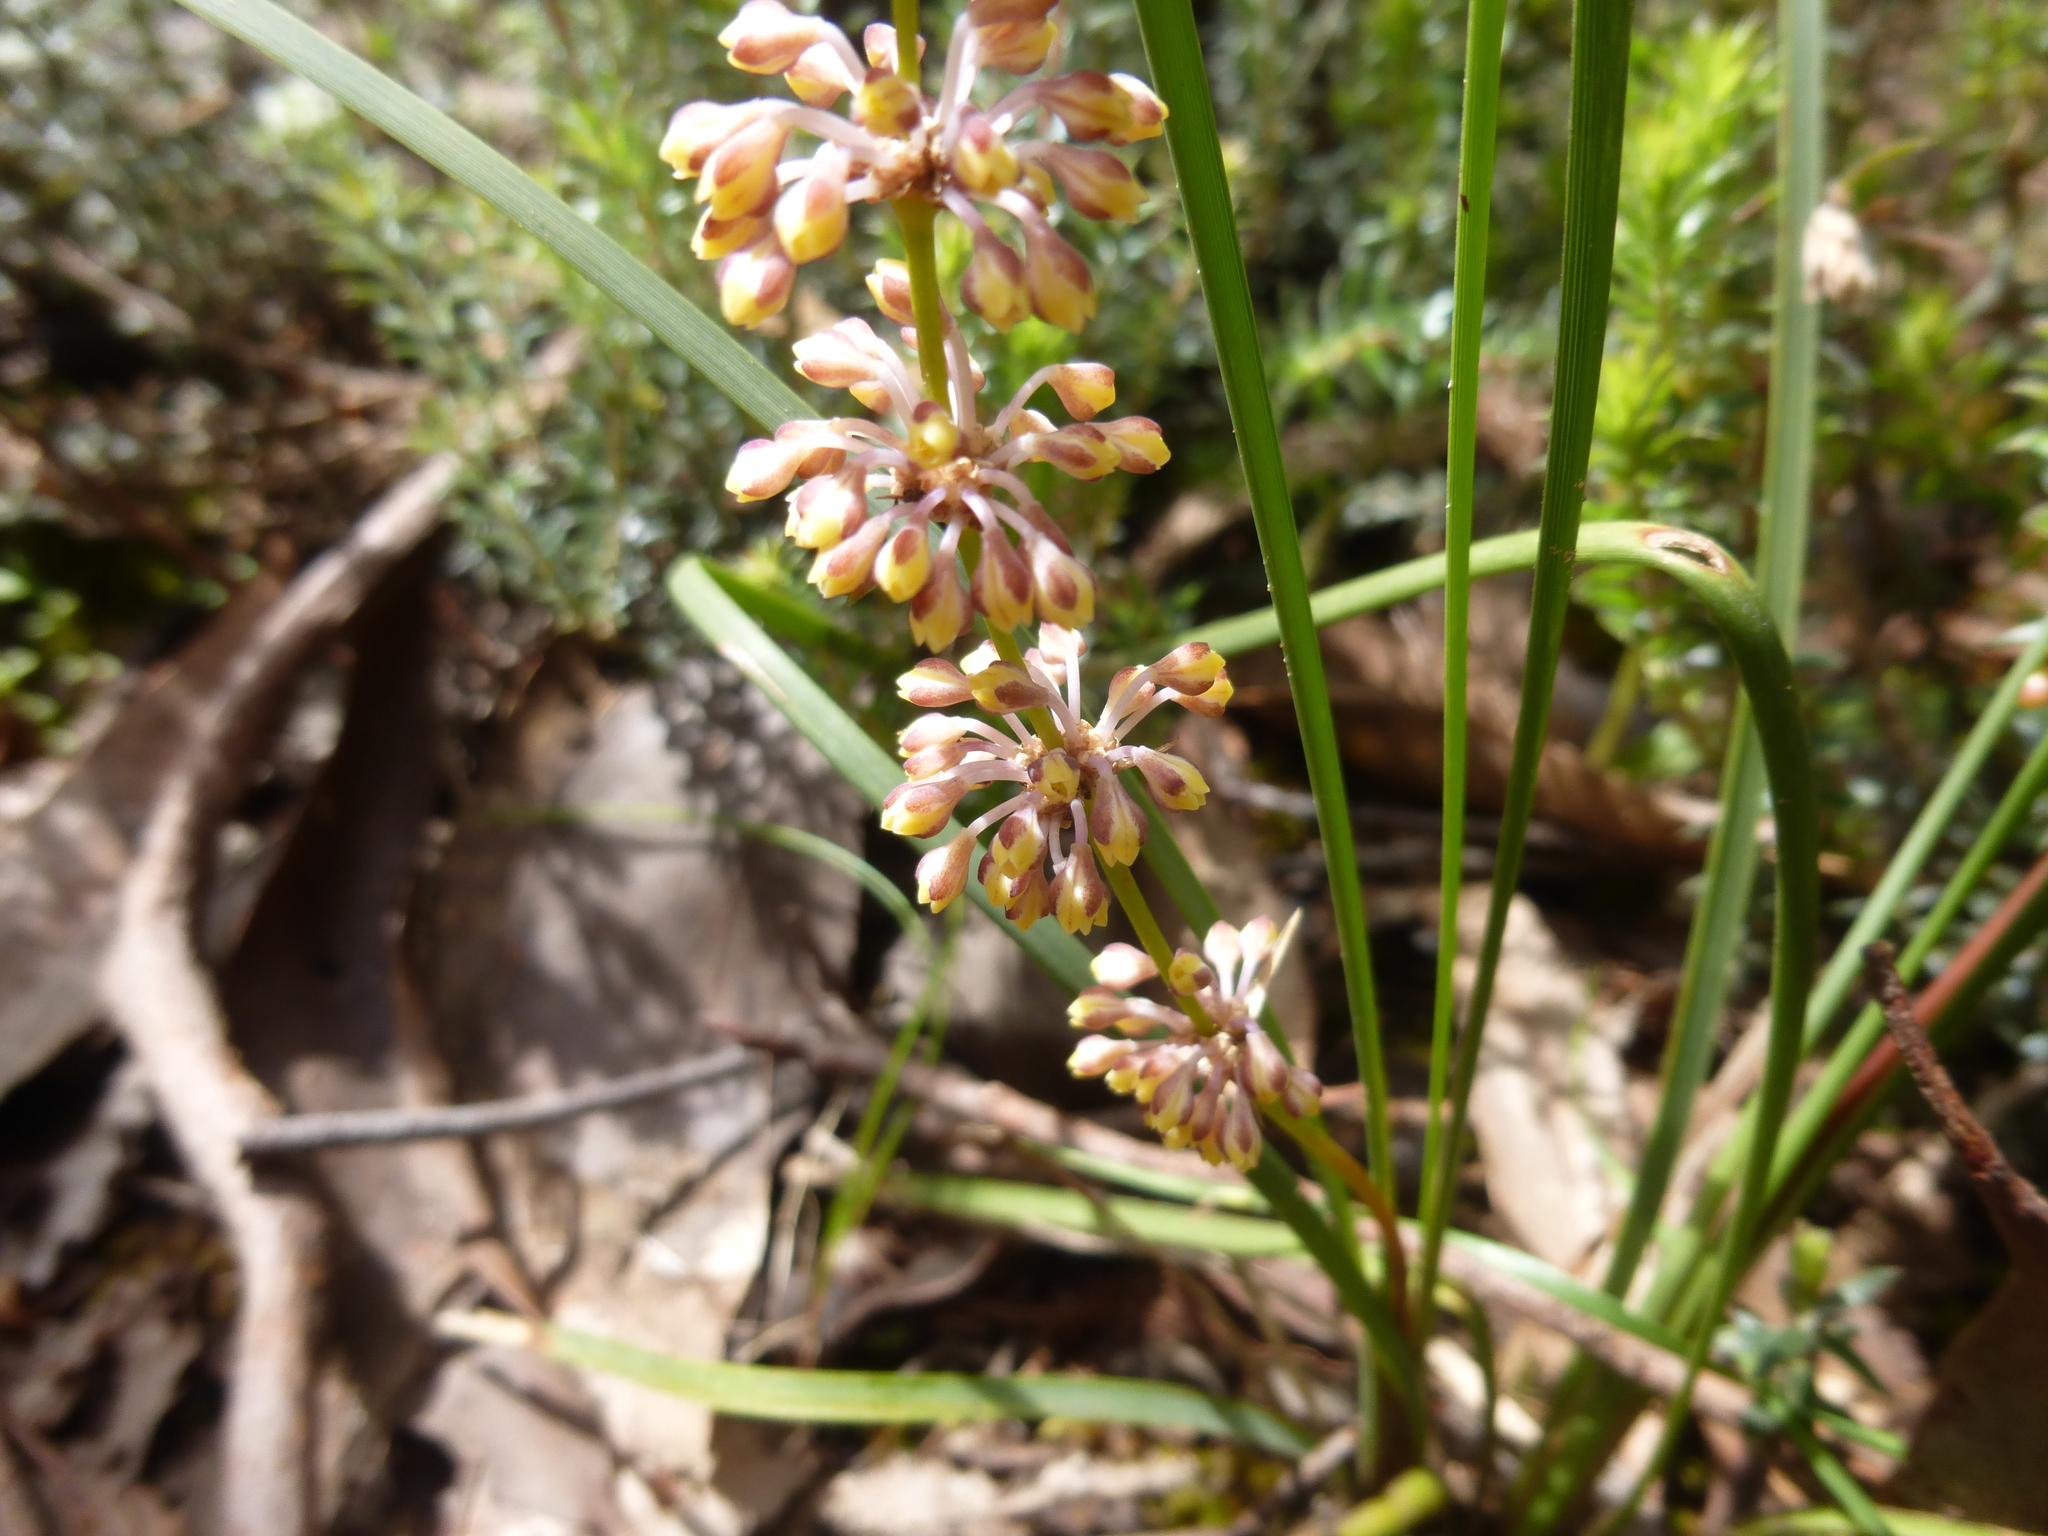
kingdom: Plantae
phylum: Tracheophyta
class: Liliopsida
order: Asparagales
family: Asparagaceae
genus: Lomandra
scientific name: Lomandra multiflora
